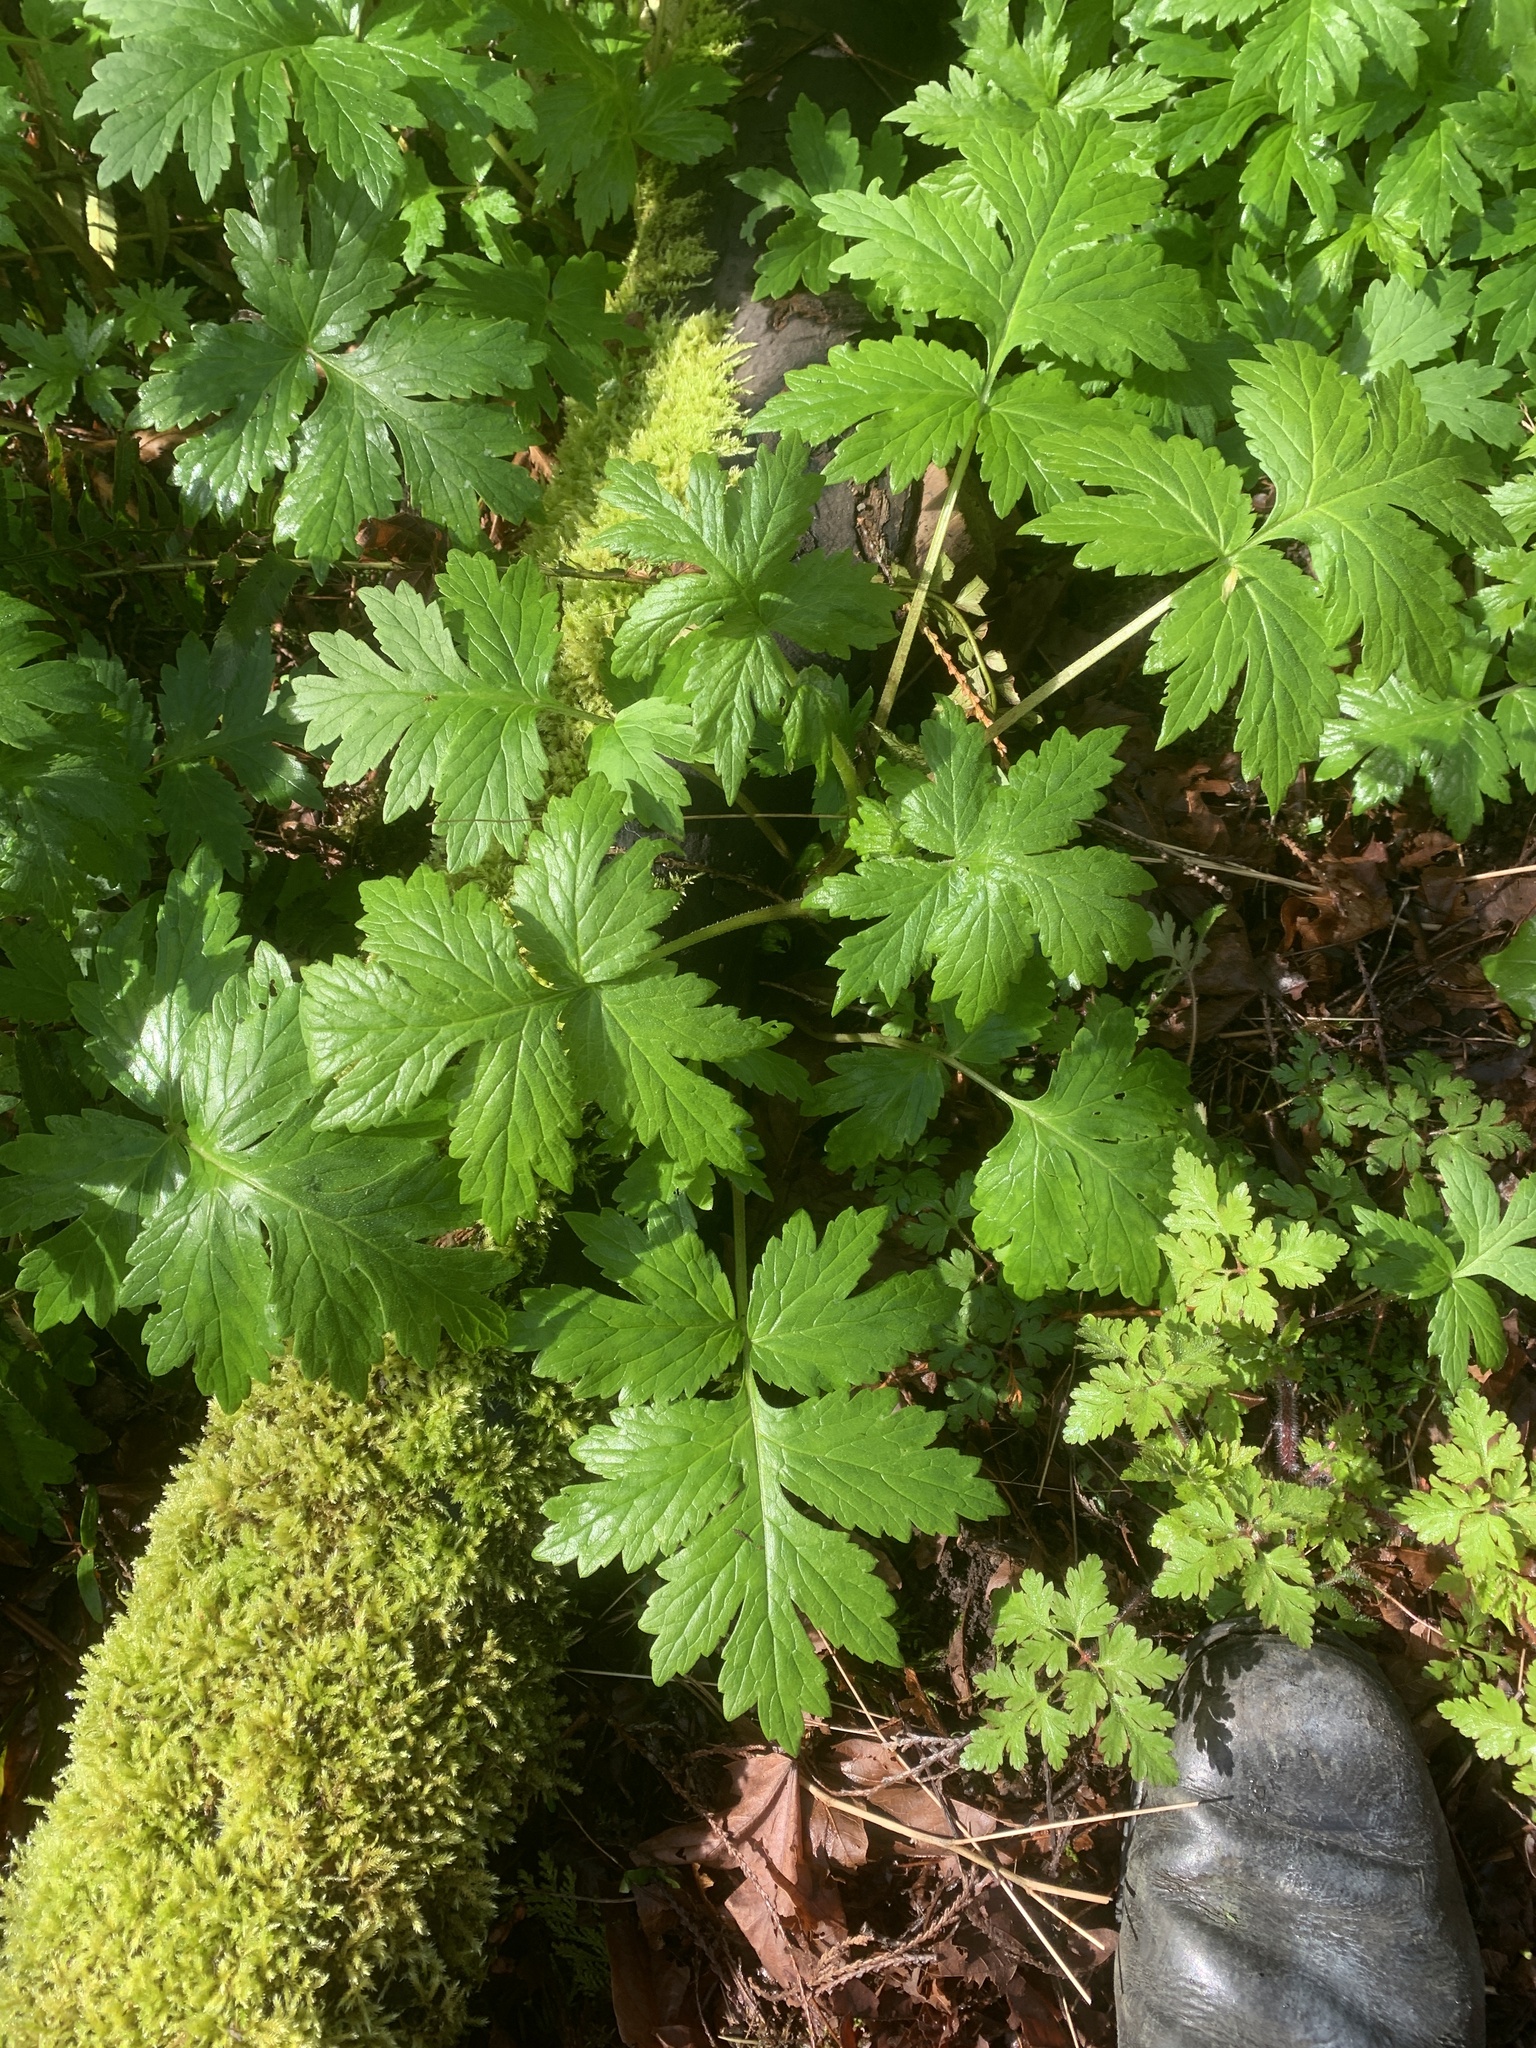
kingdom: Plantae
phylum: Tracheophyta
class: Magnoliopsida
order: Boraginales
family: Hydrophyllaceae
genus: Hydrophyllum
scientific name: Hydrophyllum tenuipes
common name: Pacific waterleaf
